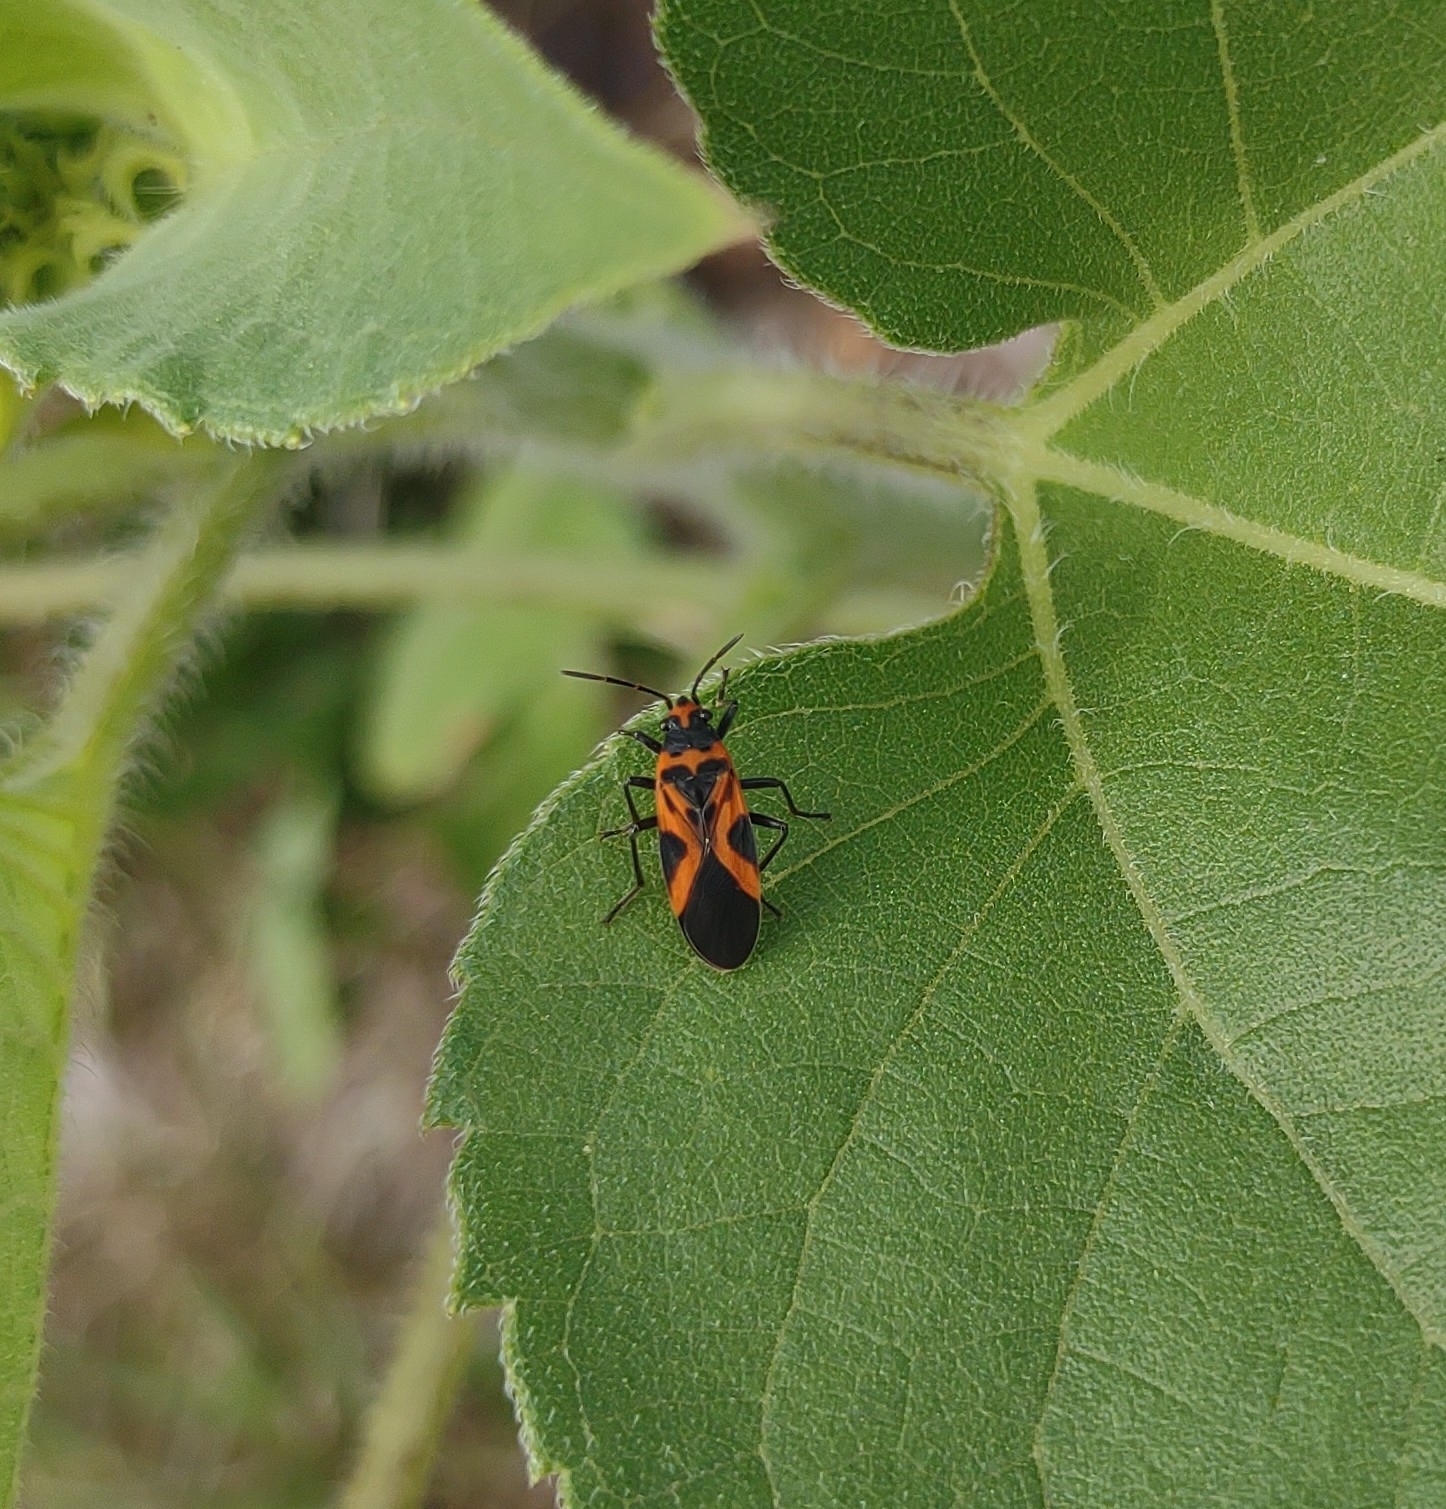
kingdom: Animalia
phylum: Arthropoda
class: Insecta
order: Hemiptera
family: Lygaeidae
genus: Lygaeus
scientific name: Lygaeus turcicus
